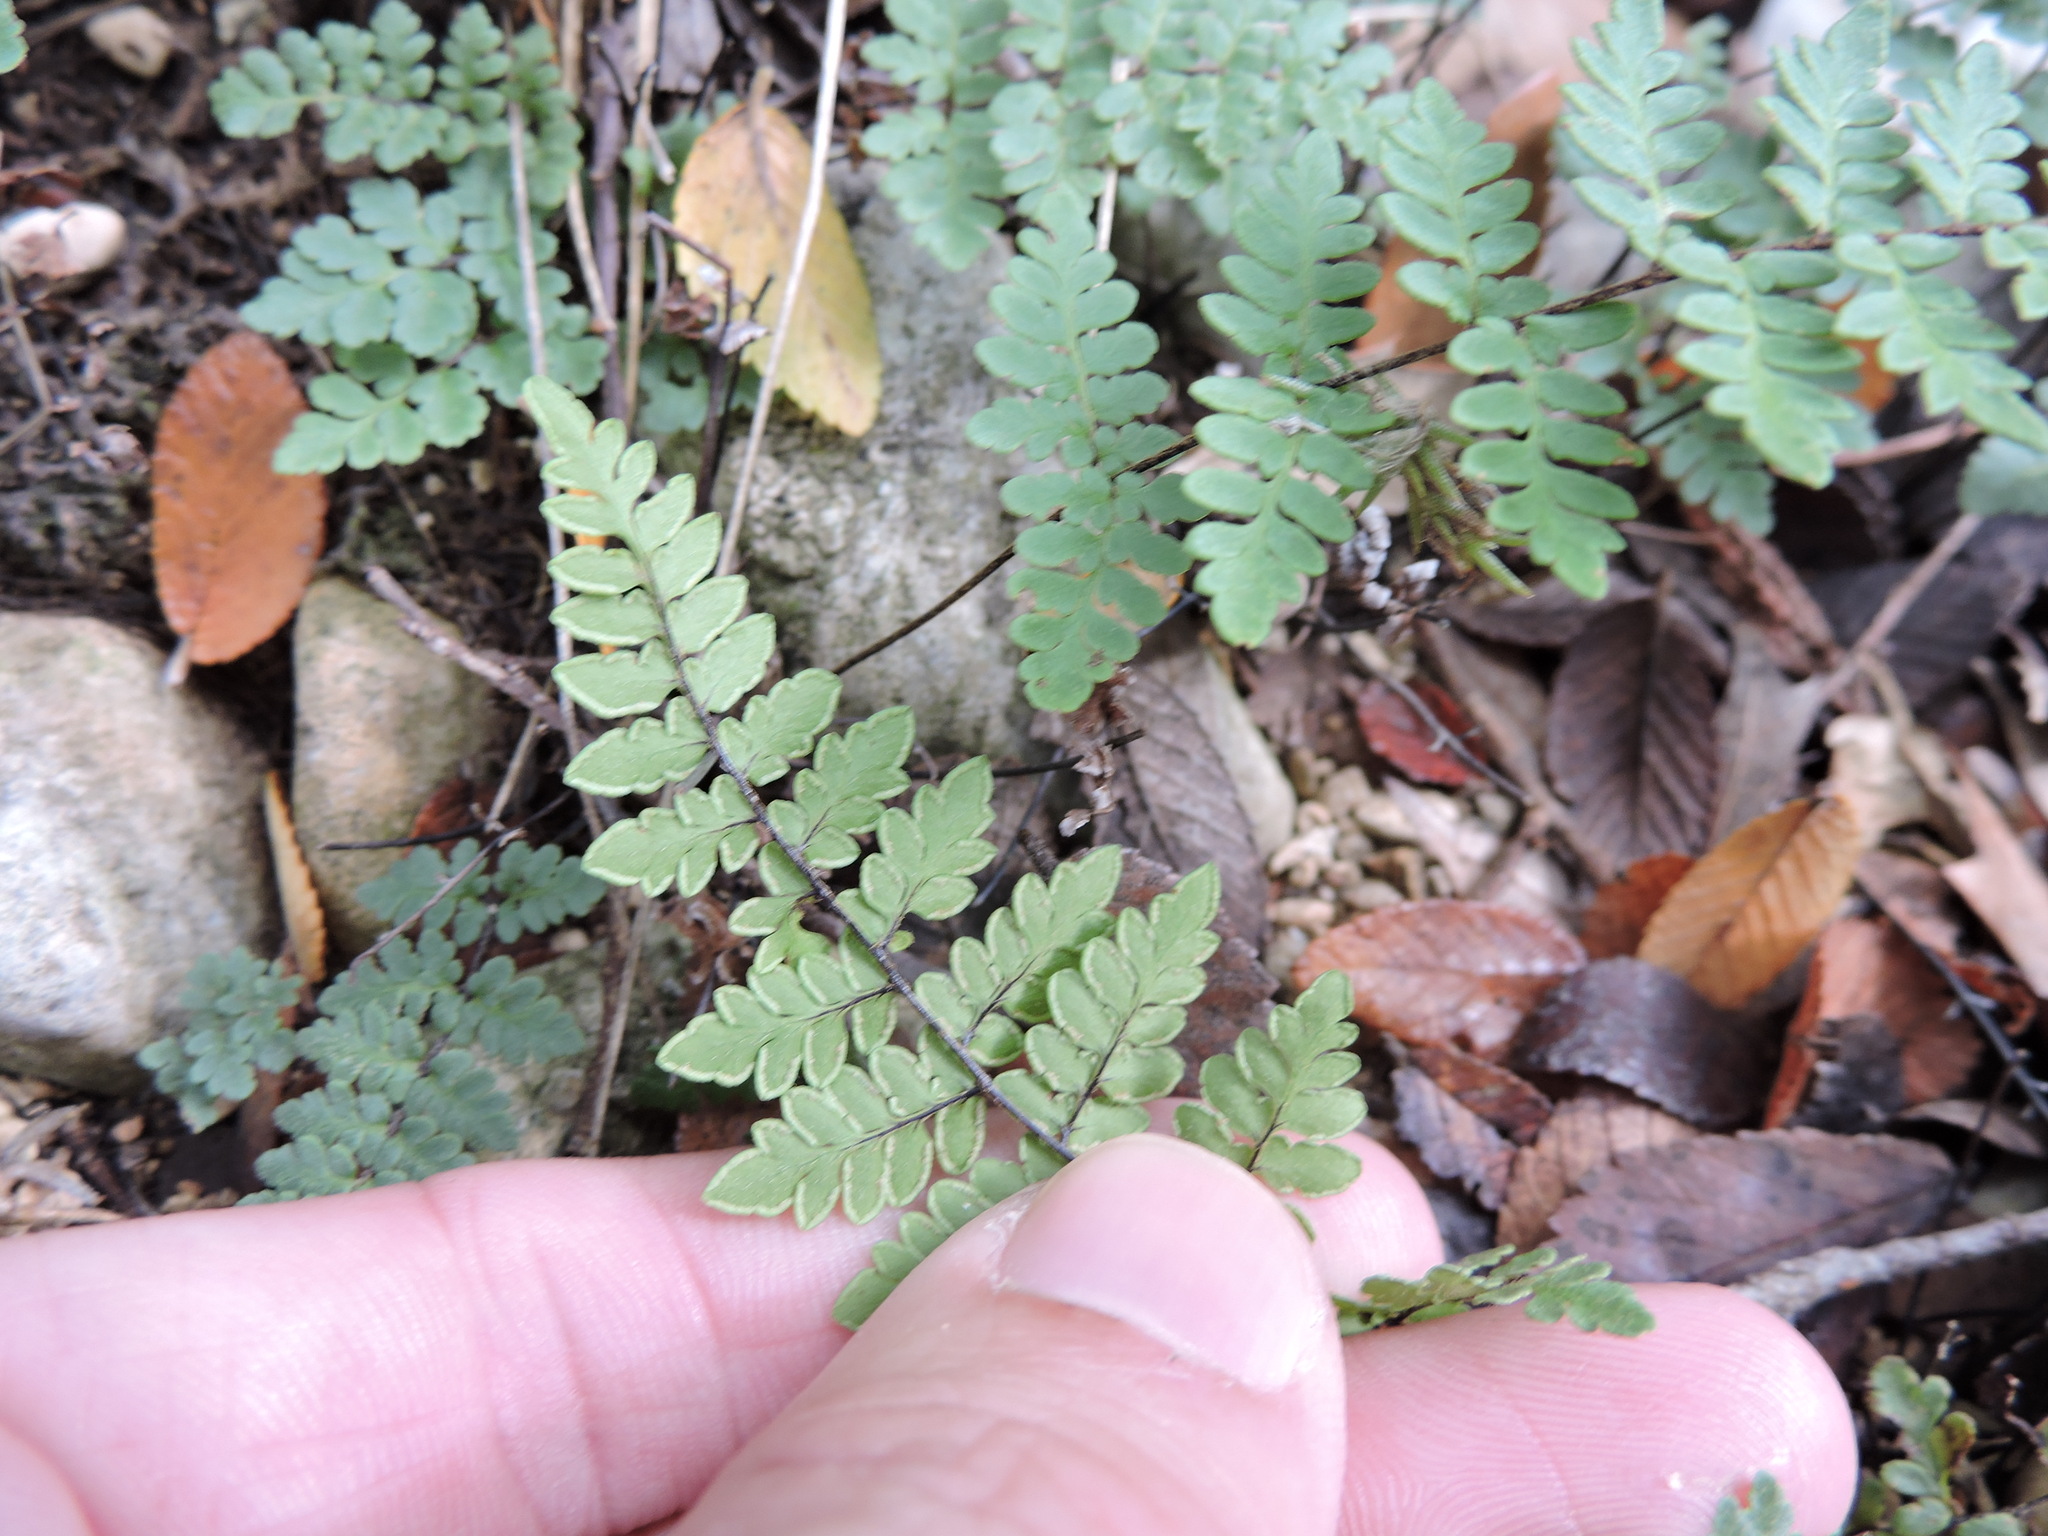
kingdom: Plantae
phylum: Tracheophyta
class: Polypodiopsida
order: Polypodiales
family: Pteridaceae
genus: Myriopteris
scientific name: Myriopteris alabamensis
